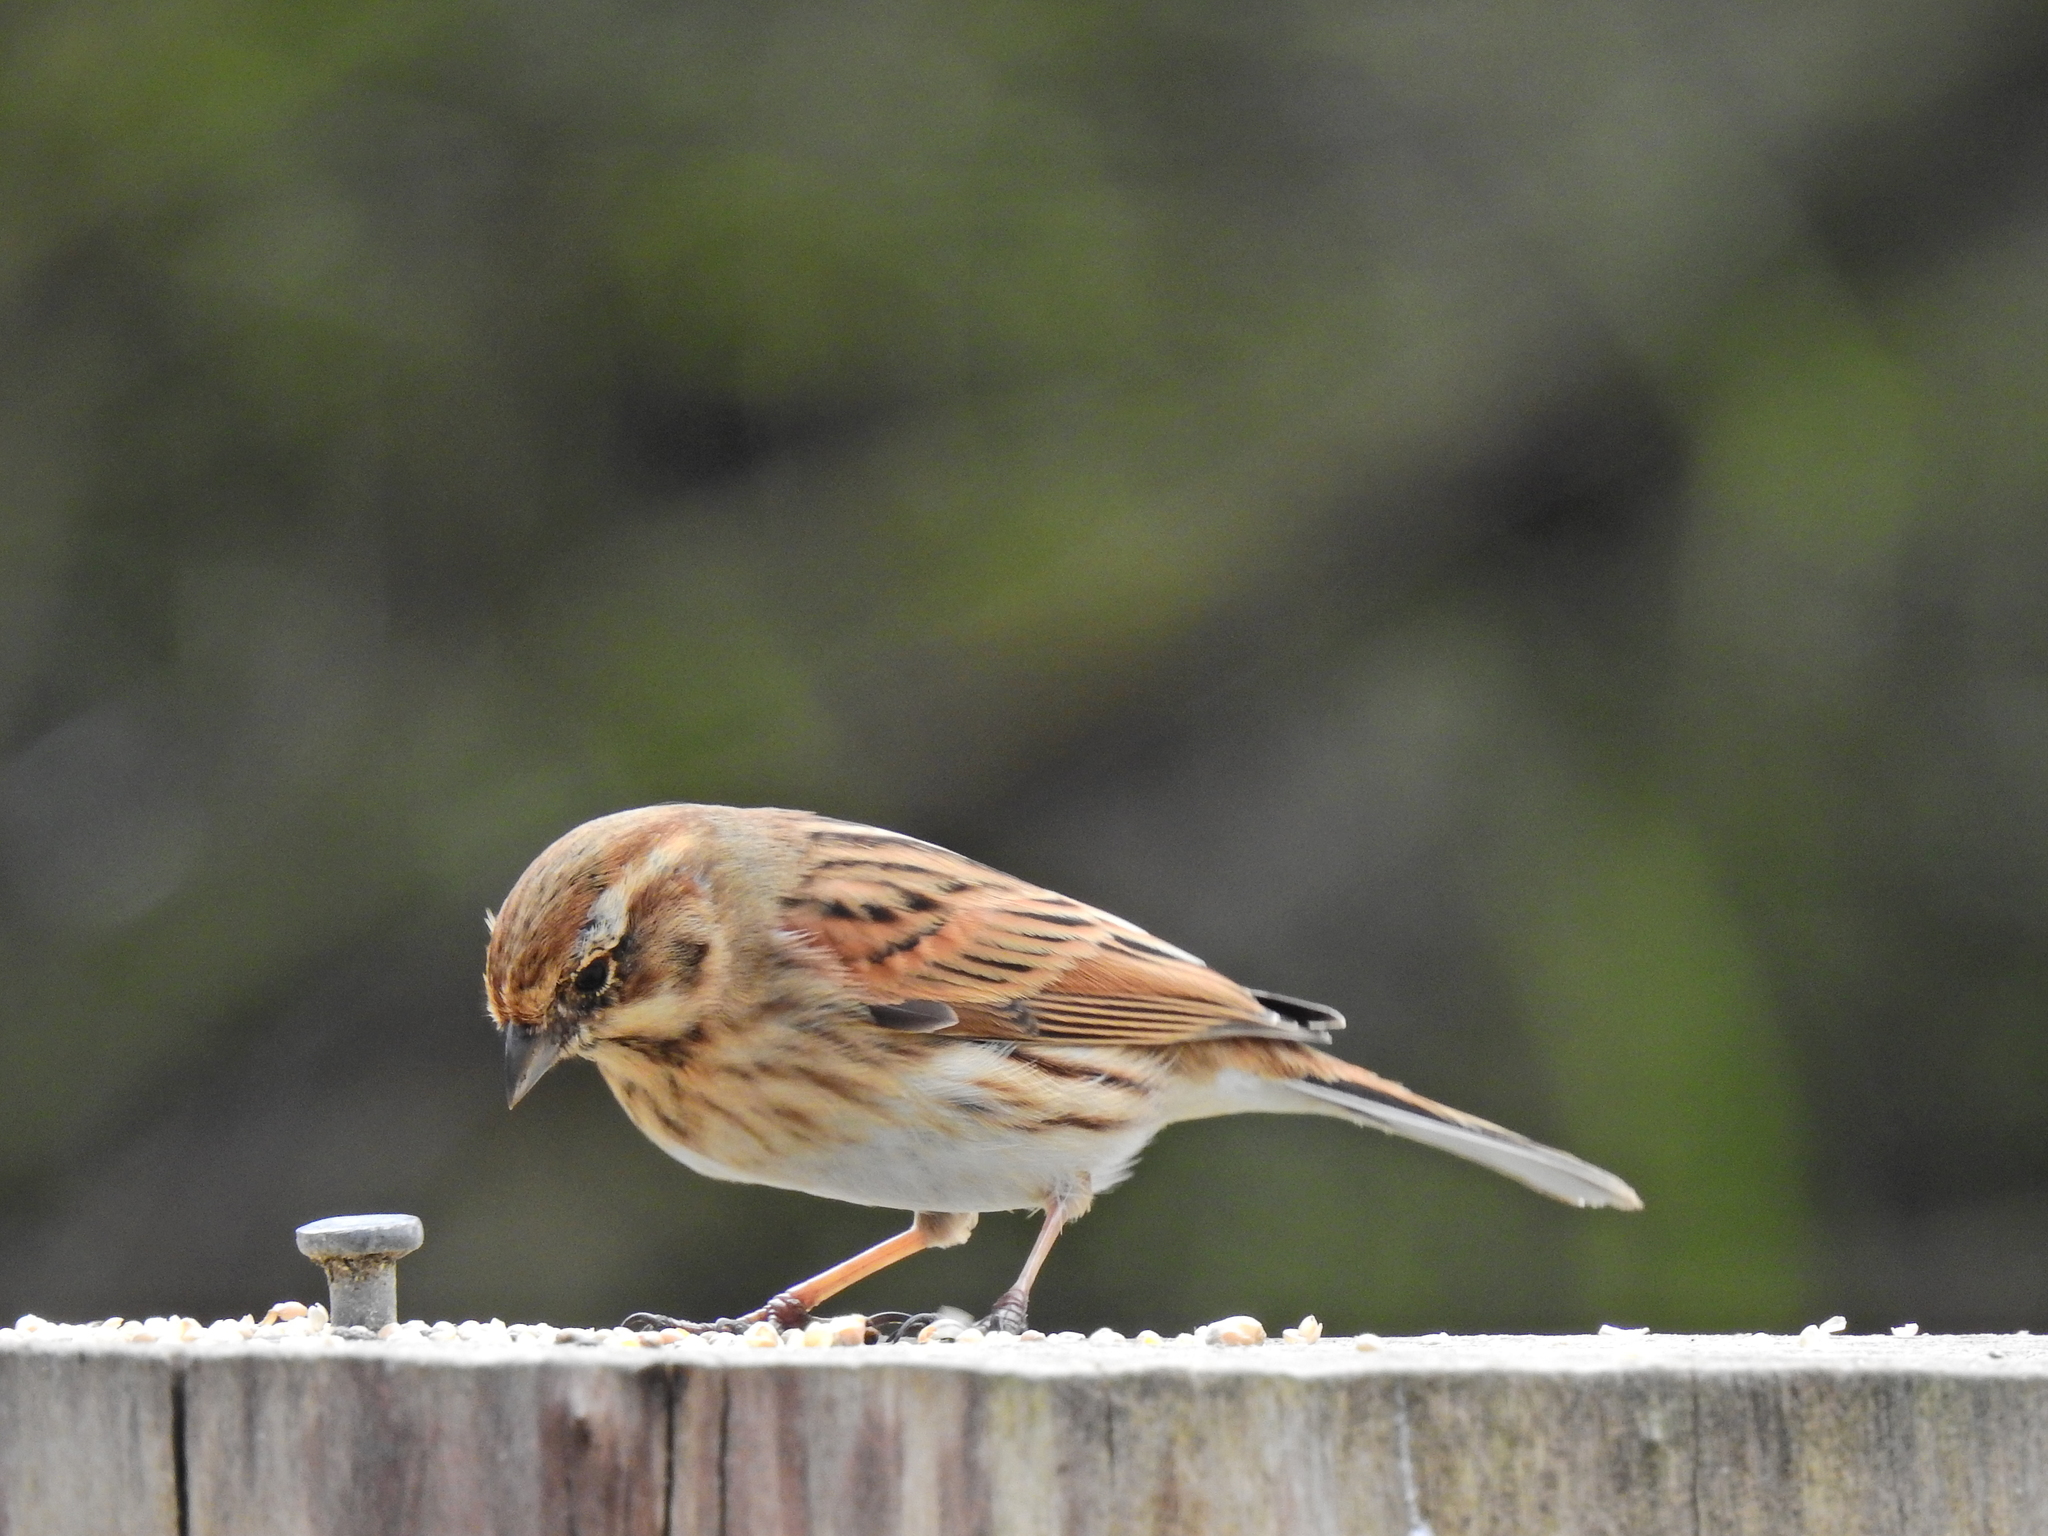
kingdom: Animalia
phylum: Chordata
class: Aves
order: Passeriformes
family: Emberizidae
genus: Emberiza
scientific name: Emberiza schoeniclus
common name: Reed bunting
